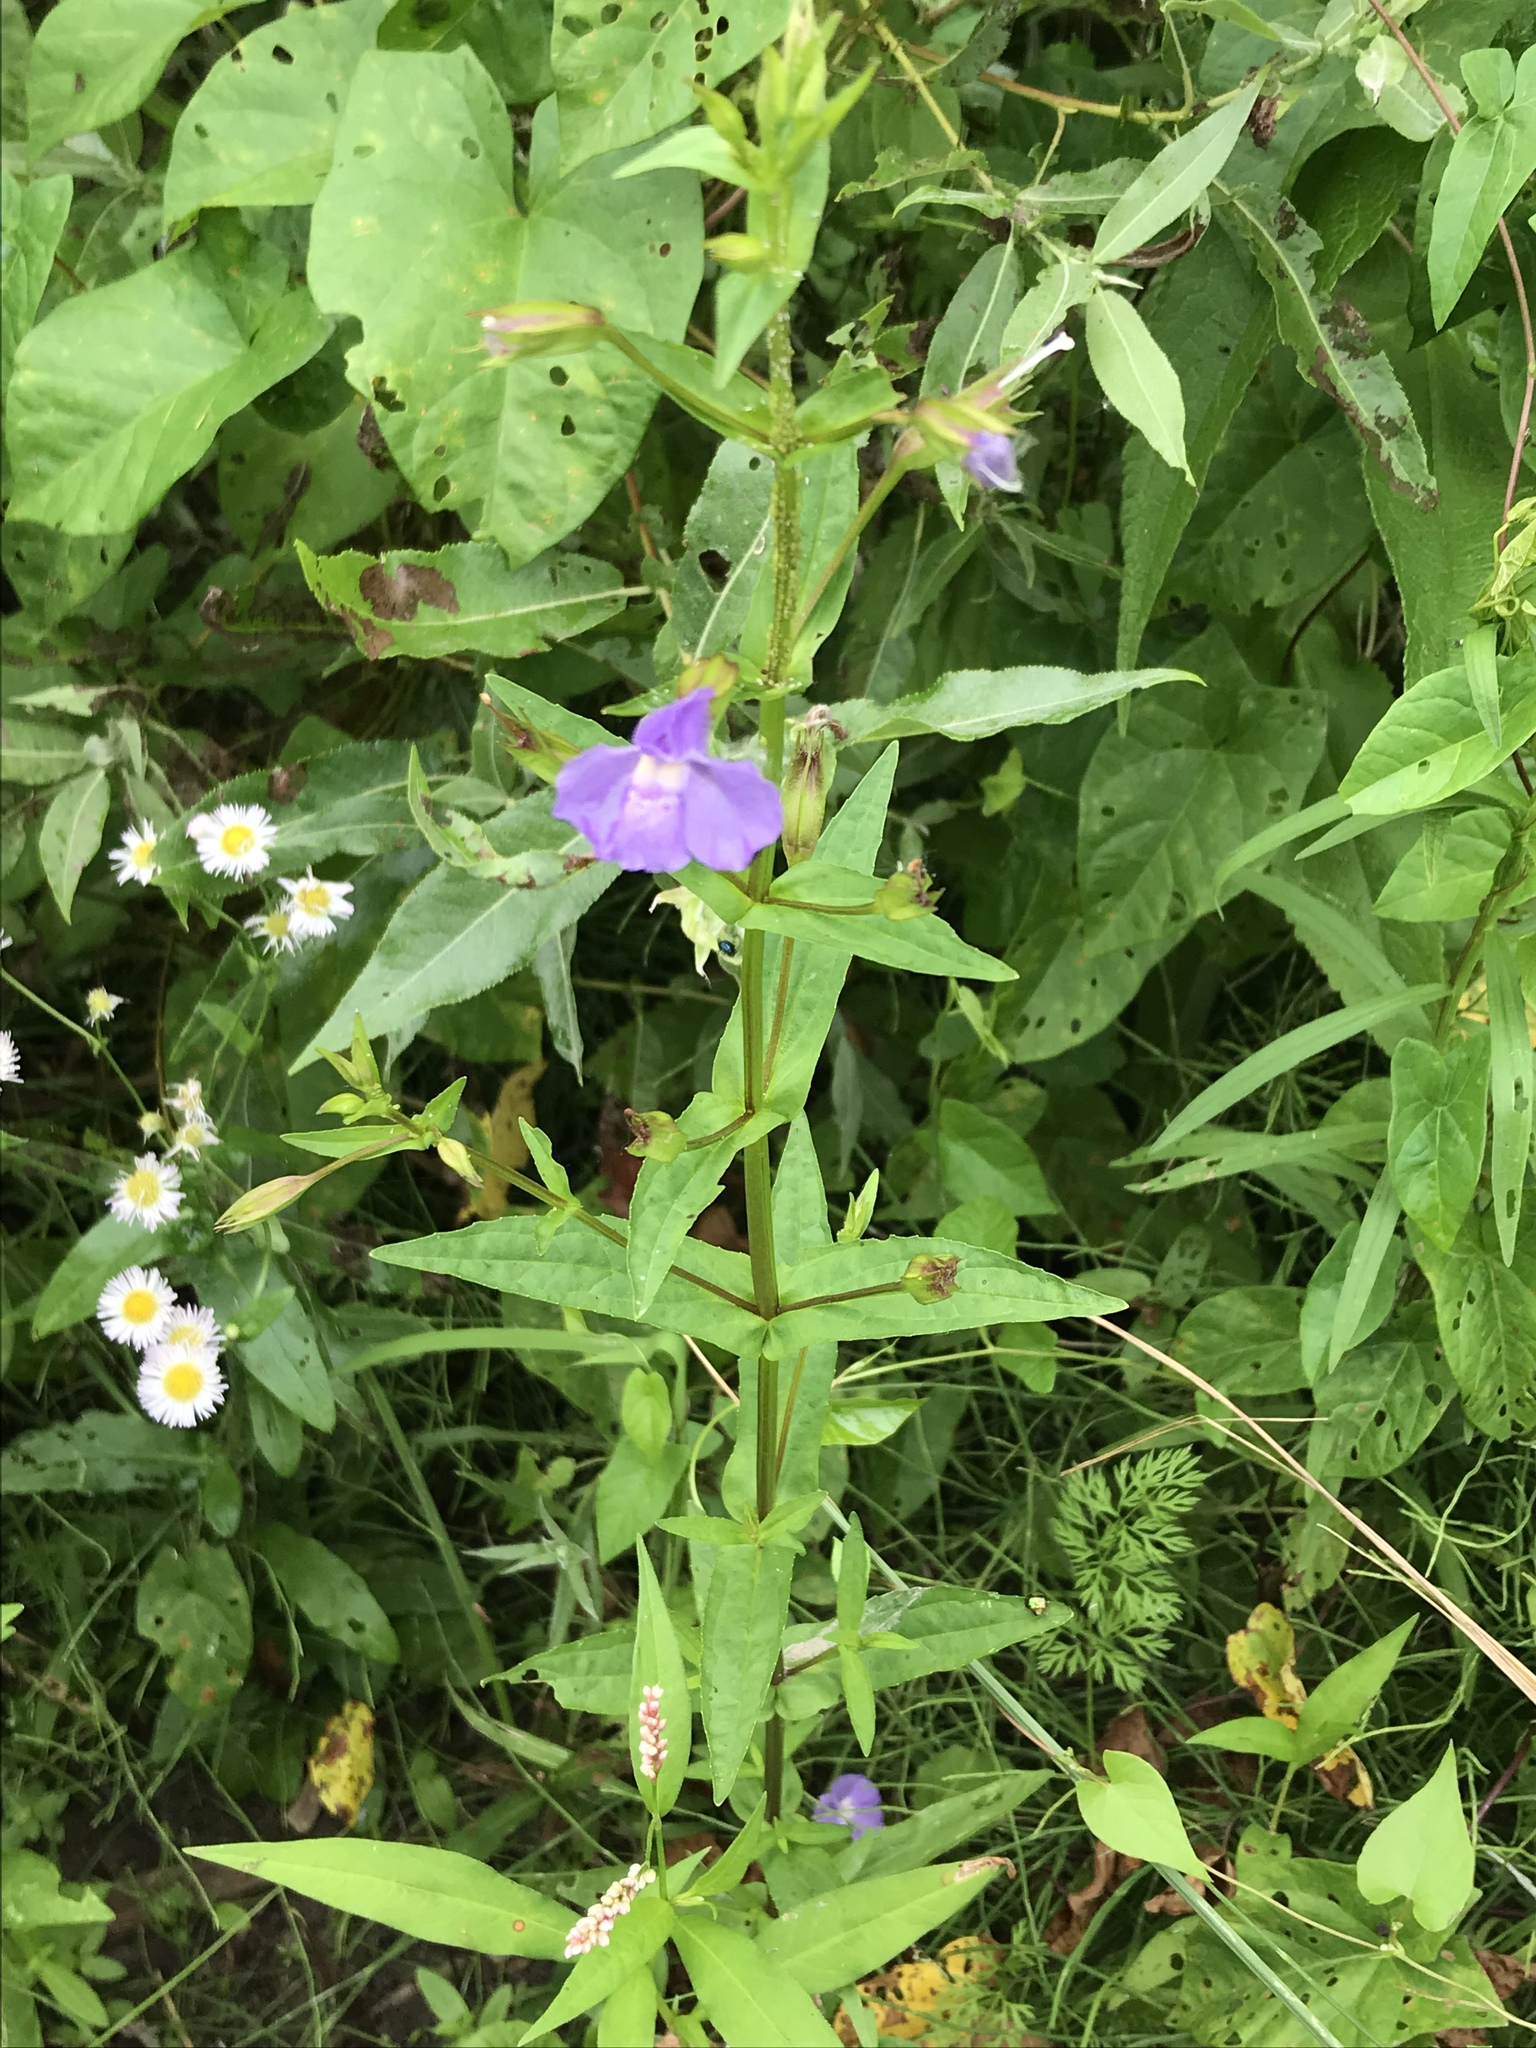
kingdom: Plantae
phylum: Tracheophyta
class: Magnoliopsida
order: Lamiales
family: Phrymaceae
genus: Mimulus
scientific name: Mimulus ringens
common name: Allegheny monkeyflower
